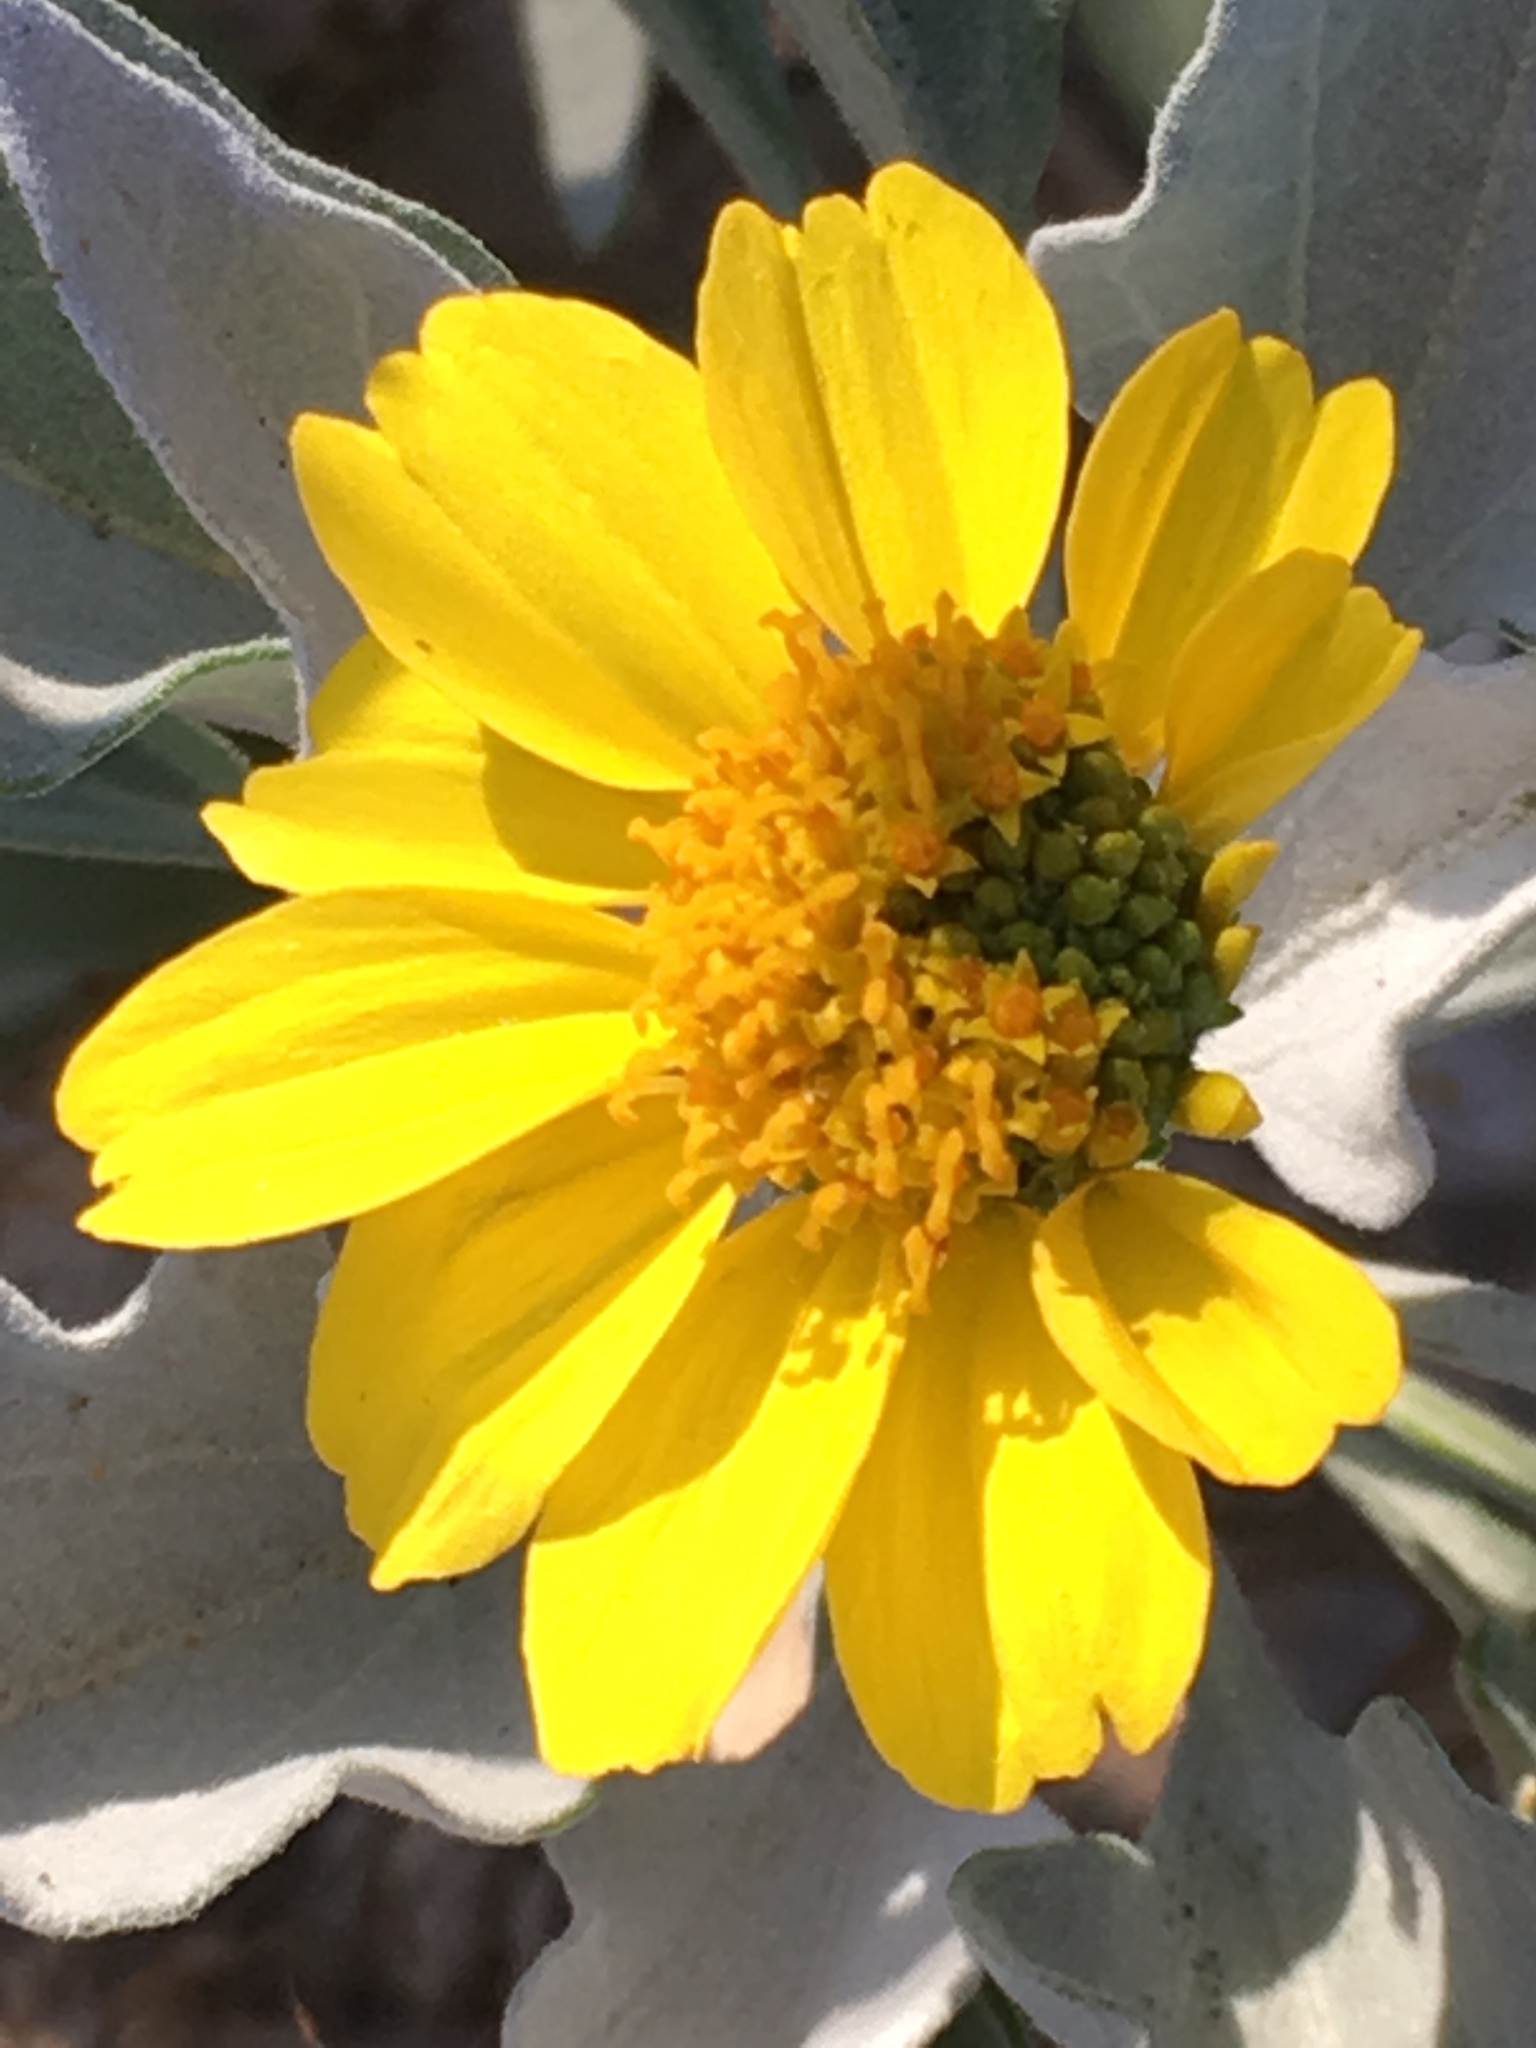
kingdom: Plantae
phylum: Tracheophyta
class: Magnoliopsida
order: Asterales
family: Asteraceae
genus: Encelia
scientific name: Encelia farinosa
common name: Brittlebush
